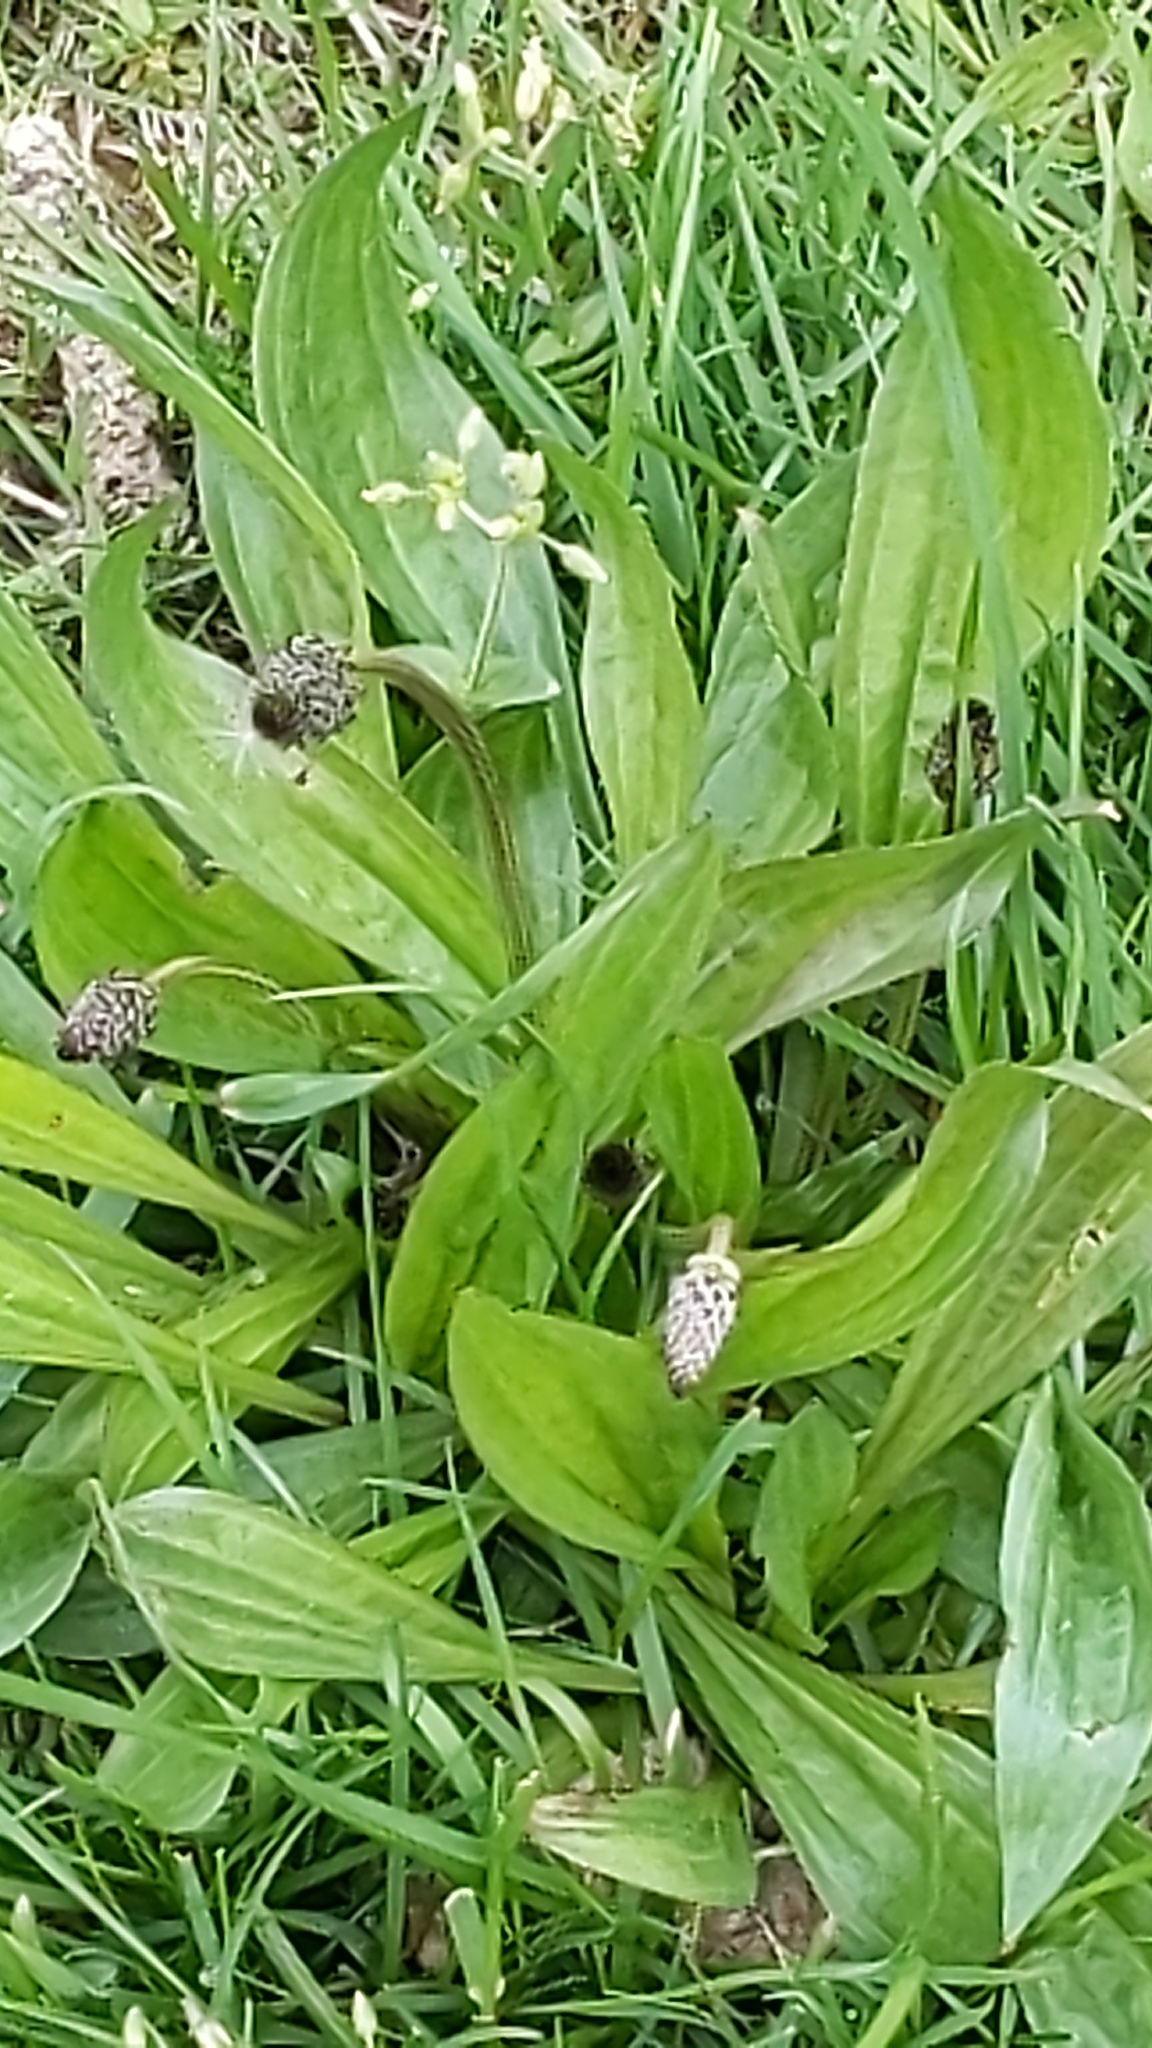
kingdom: Plantae
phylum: Tracheophyta
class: Magnoliopsida
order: Lamiales
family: Plantaginaceae
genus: Plantago
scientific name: Plantago lanceolata
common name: Ribwort plantain
